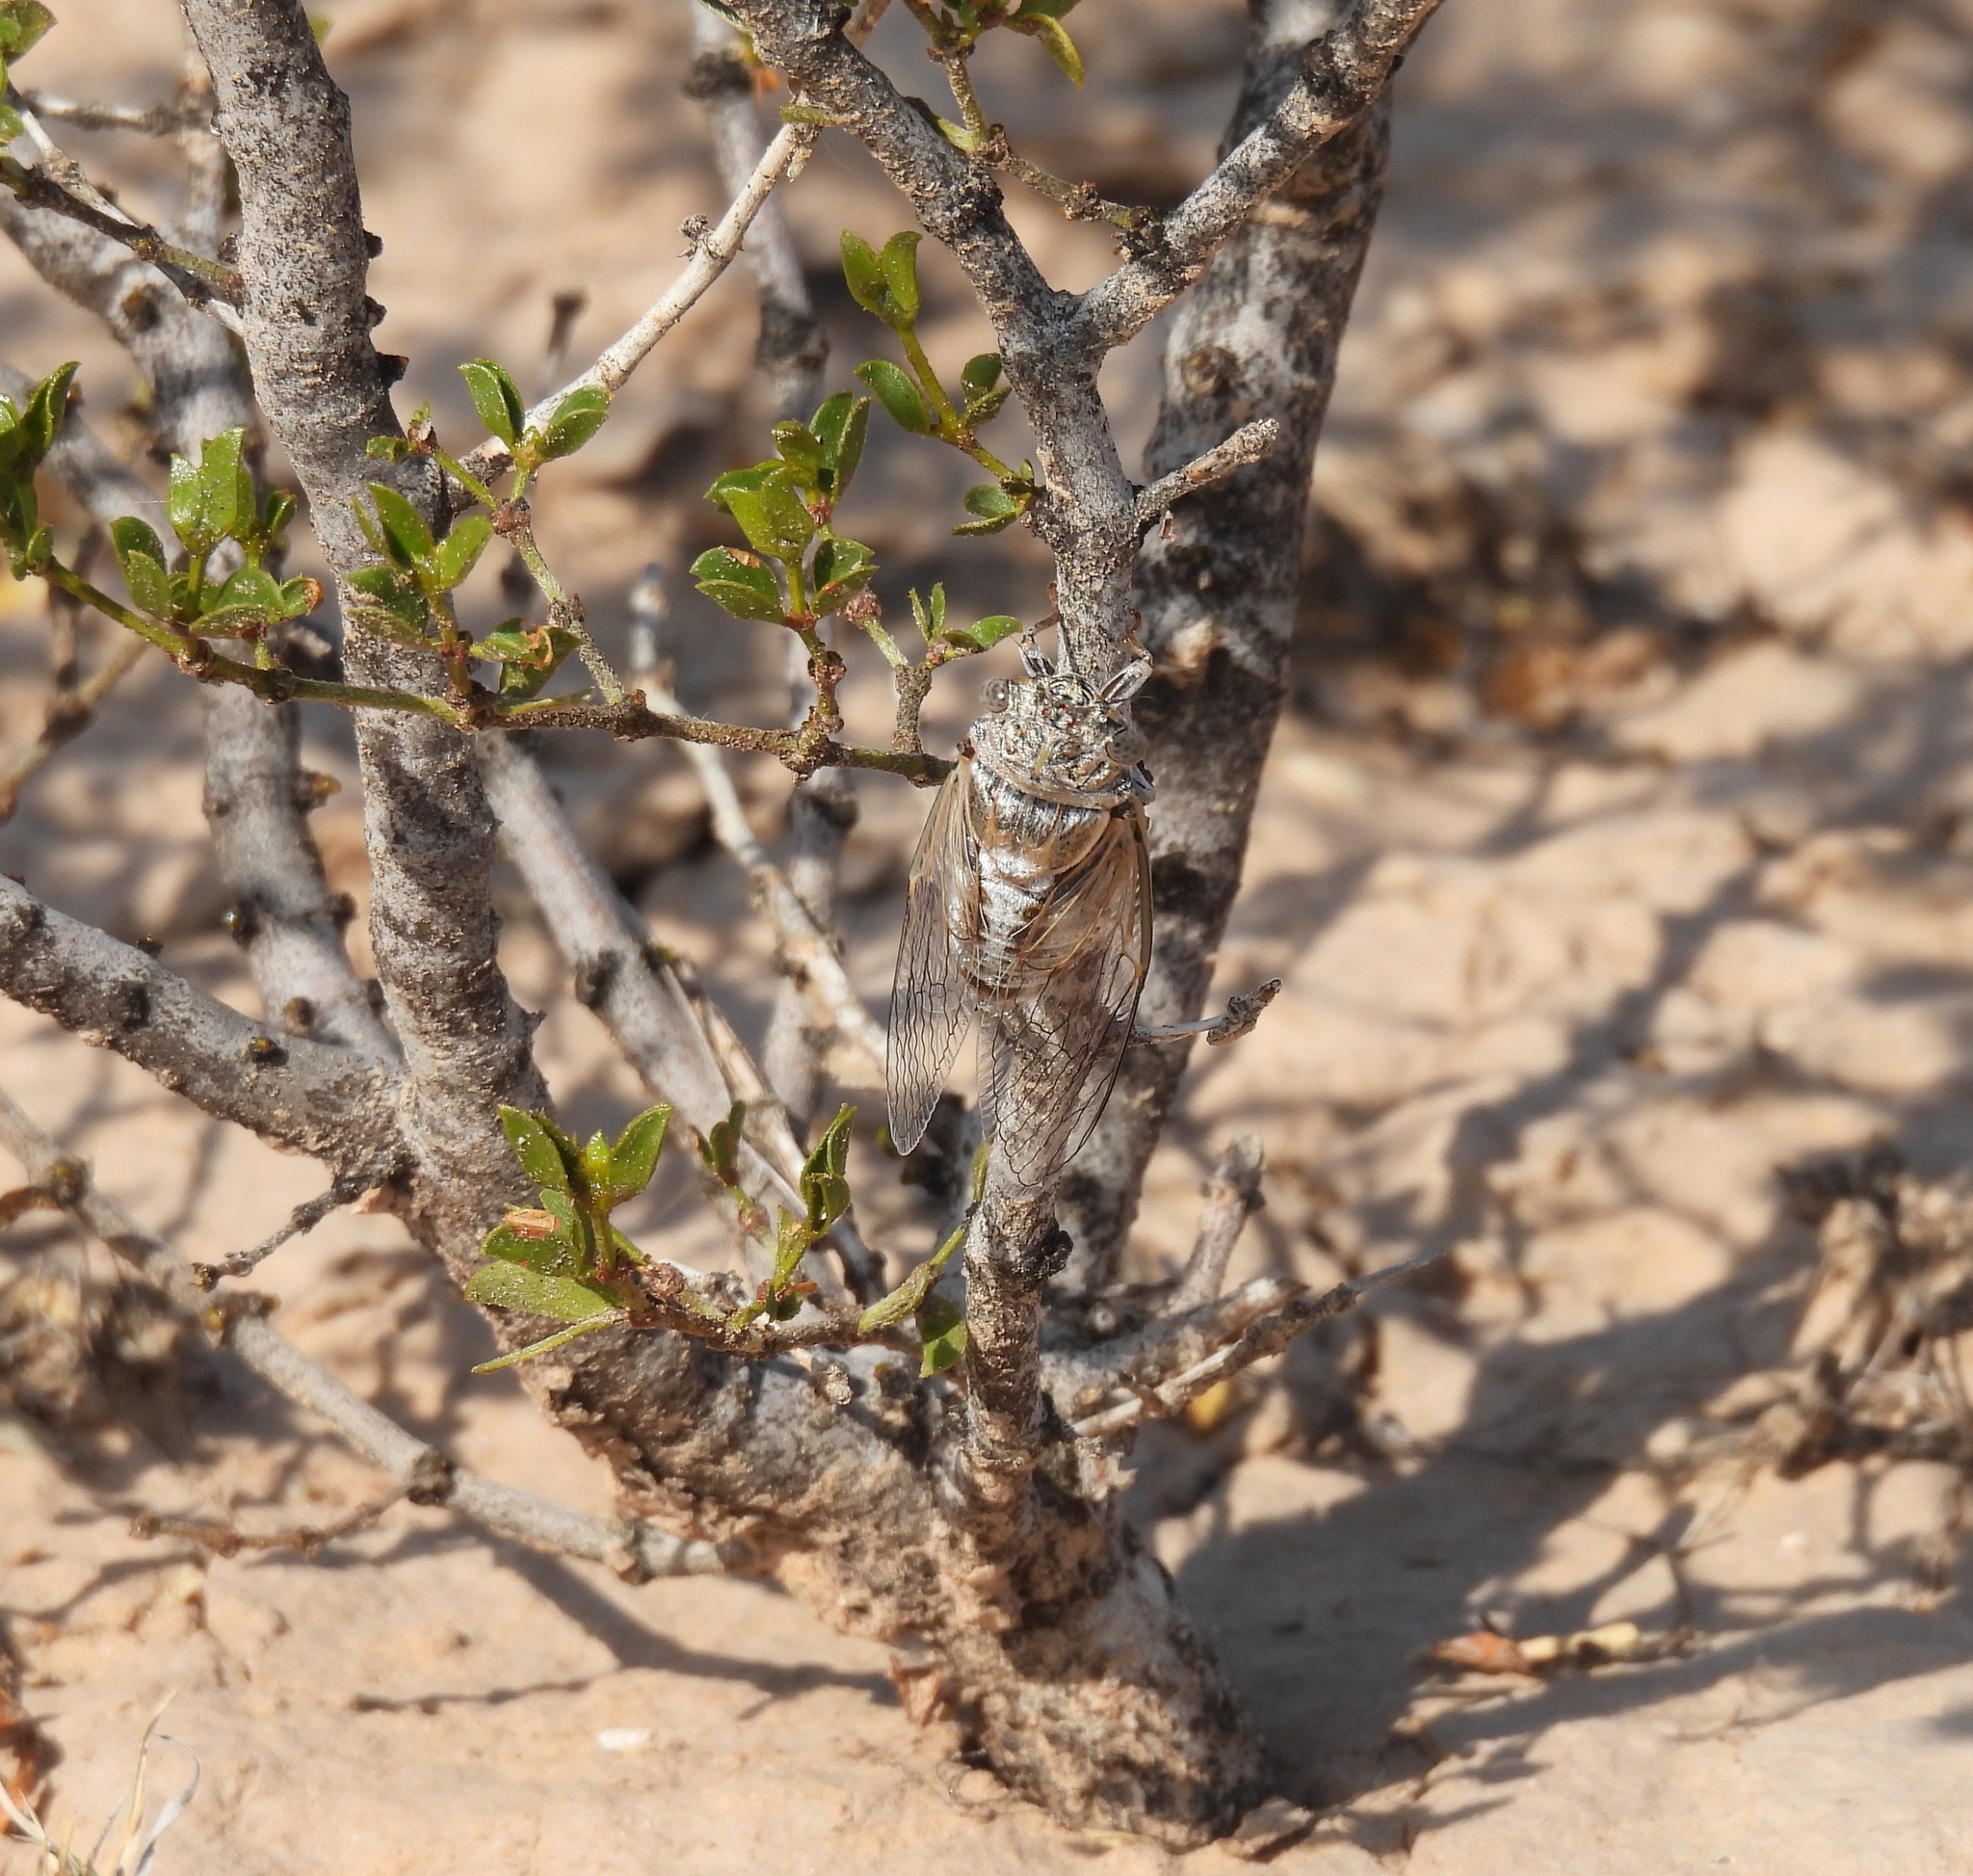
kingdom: Animalia
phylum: Arthropoda
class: Insecta
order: Hemiptera
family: Cicadidae
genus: Diceroprocta
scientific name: Diceroprocta eugraphica
